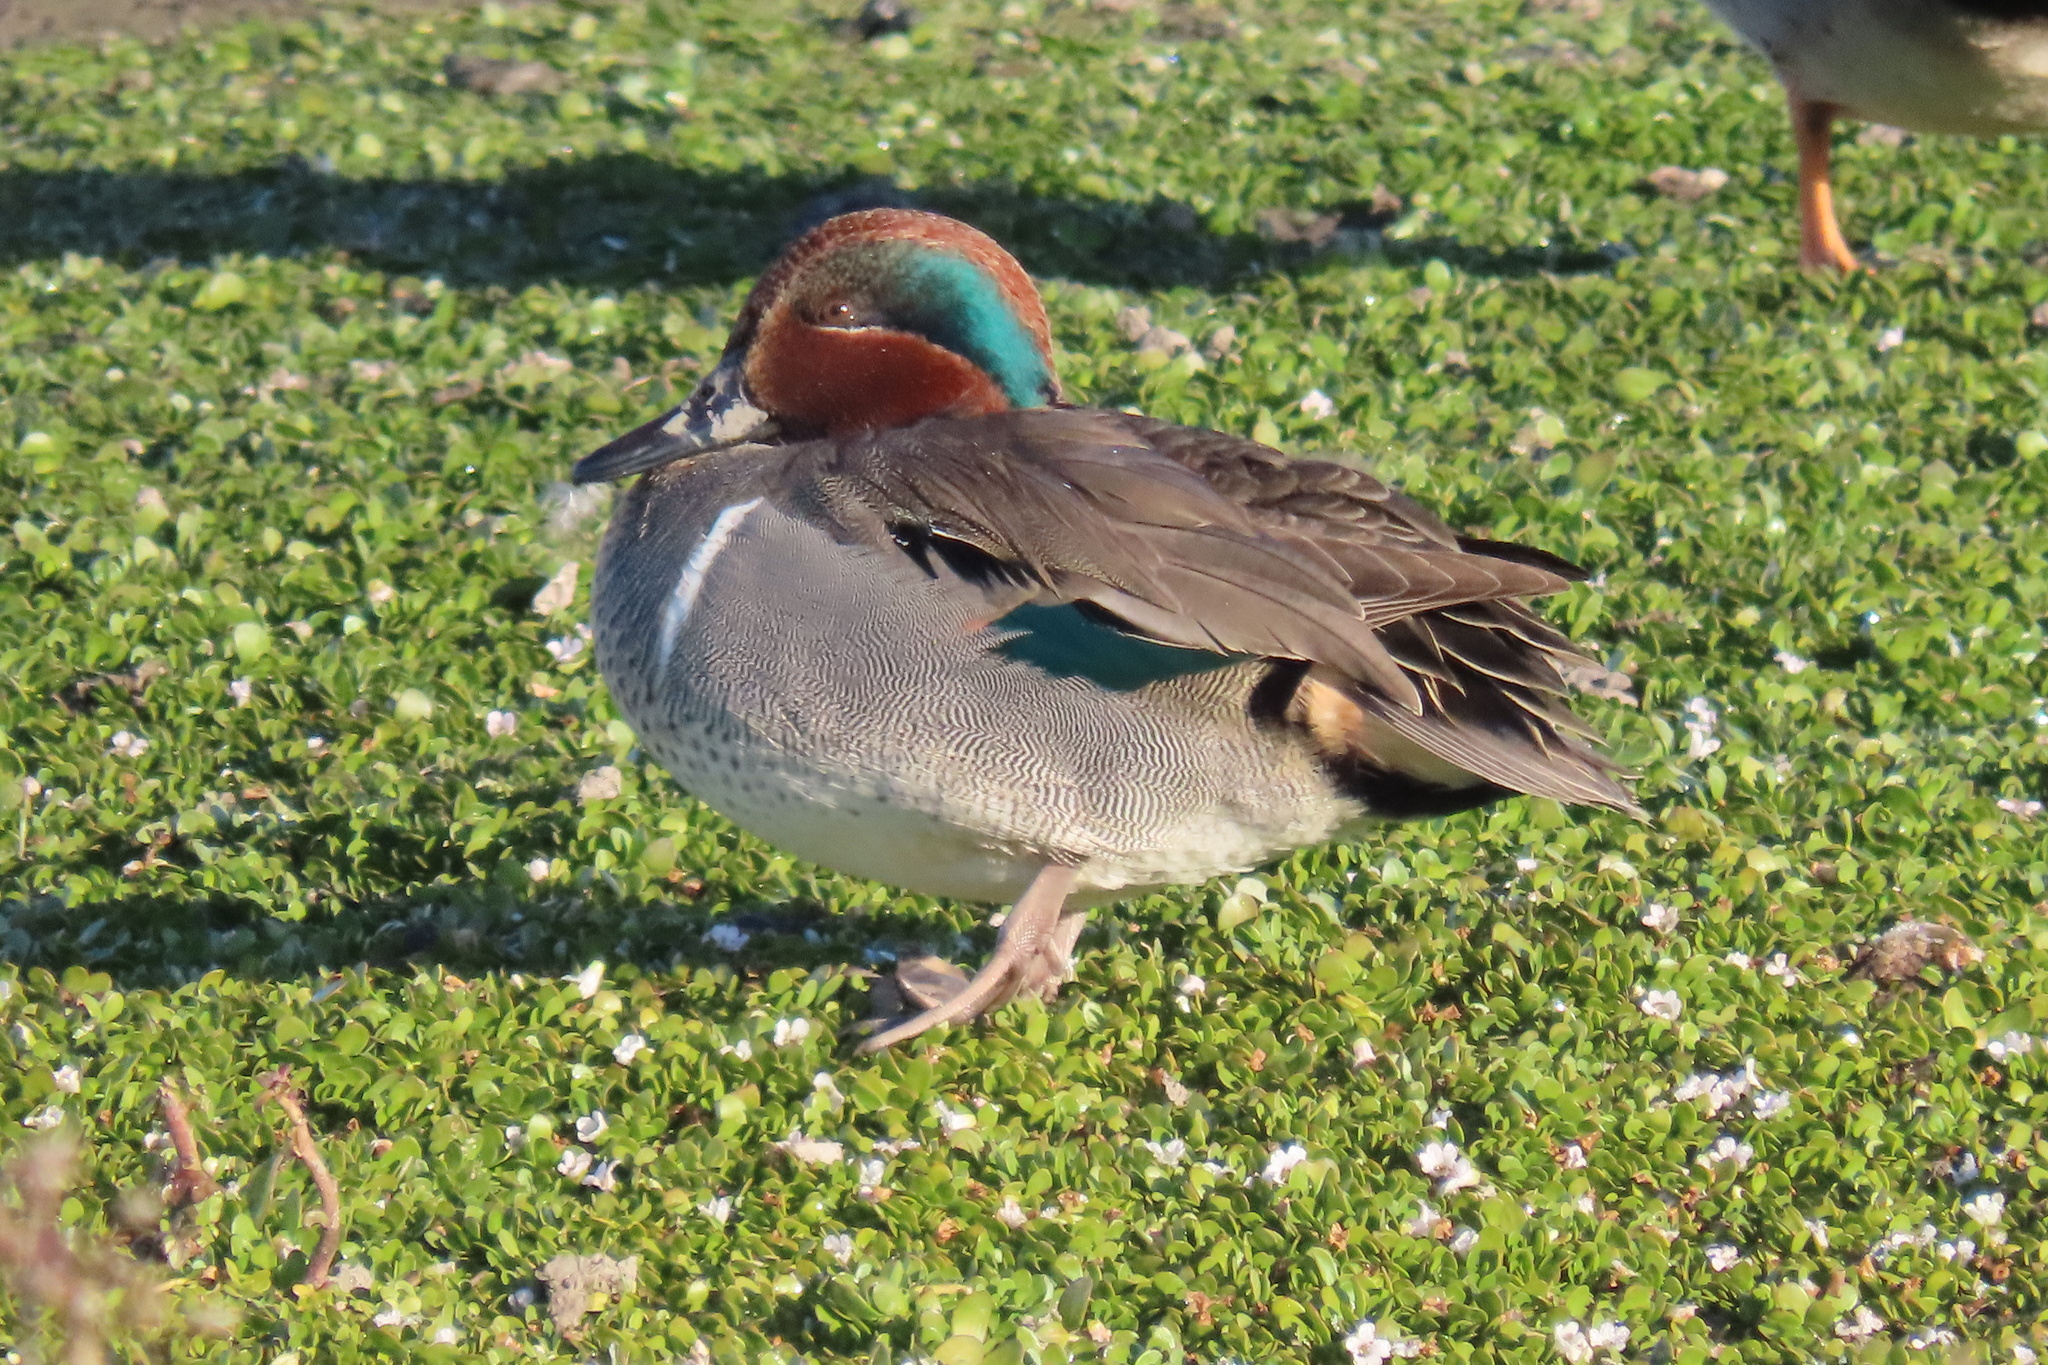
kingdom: Animalia
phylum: Chordata
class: Aves
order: Anseriformes
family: Anatidae
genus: Anas
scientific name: Anas crecca
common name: Eurasian teal
